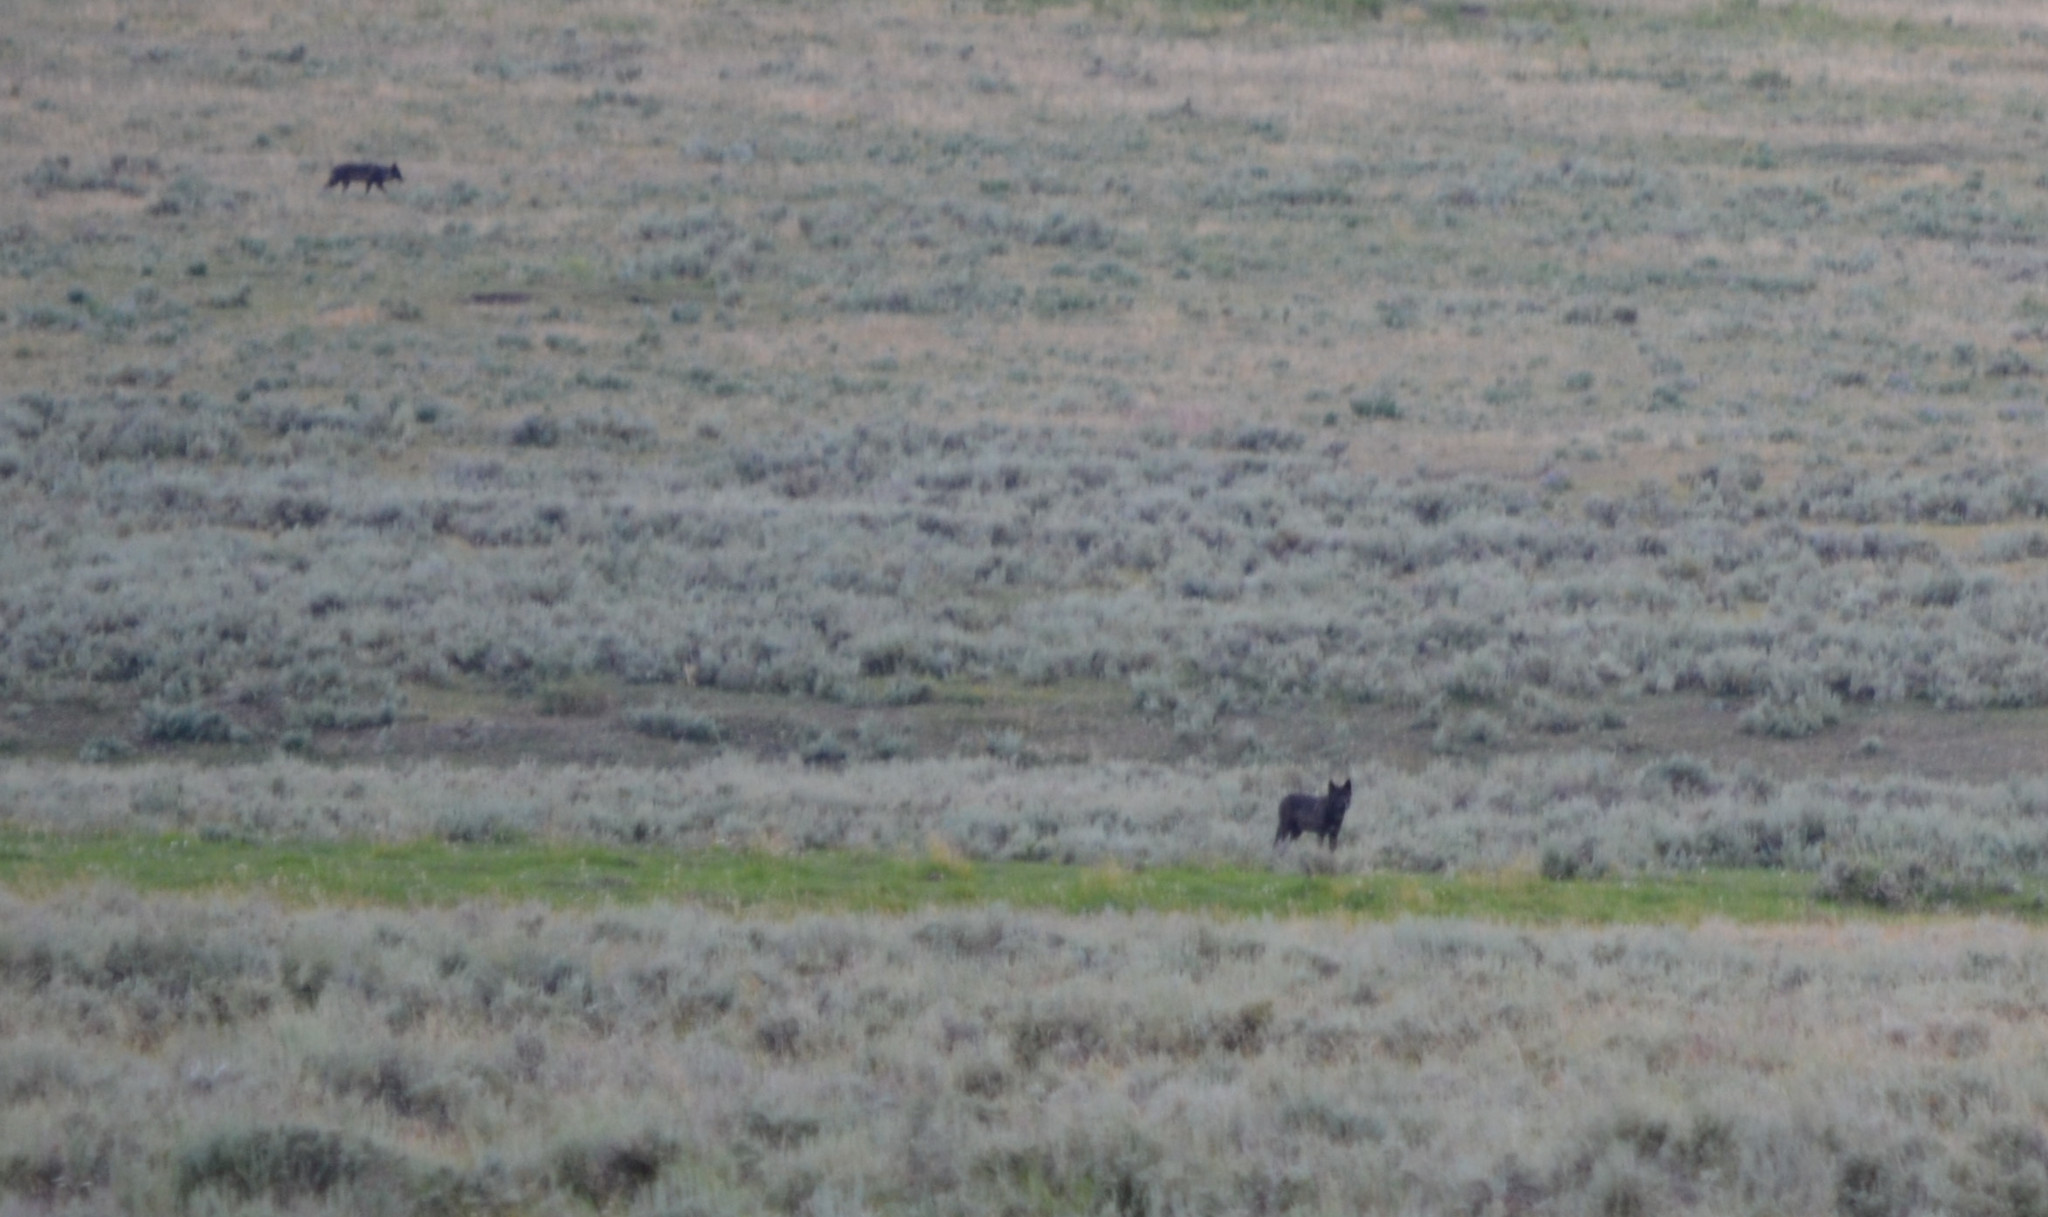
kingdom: Animalia
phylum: Chordata
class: Mammalia
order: Carnivora
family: Canidae
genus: Canis
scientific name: Canis lupus
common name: Gray wolf
